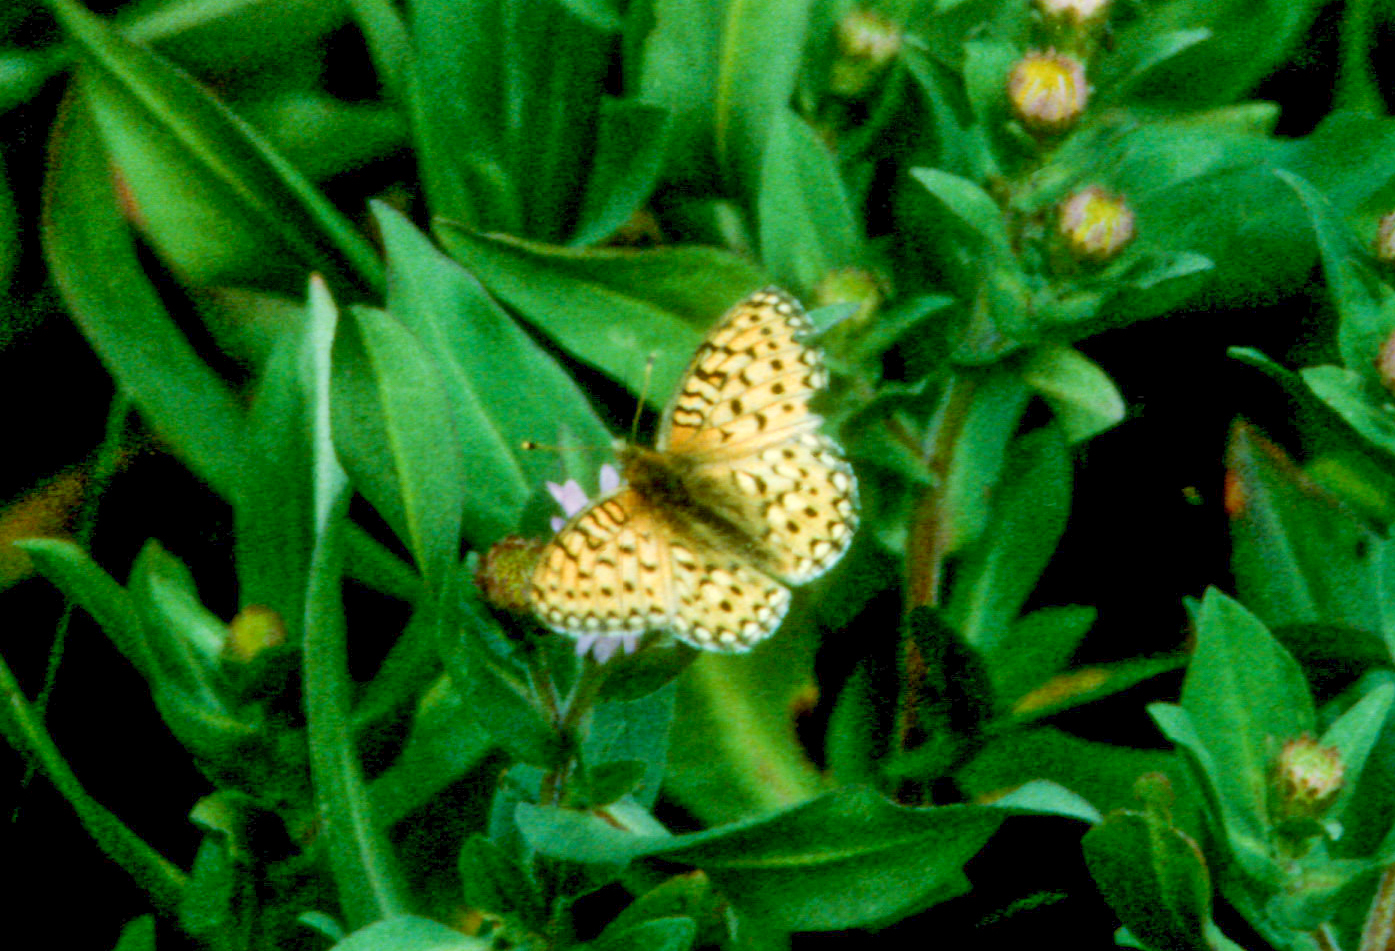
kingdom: Animalia
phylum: Arthropoda
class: Insecta
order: Lepidoptera
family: Nymphalidae
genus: Speyeria
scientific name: Speyeria mormonia
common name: Mormon fritillary
